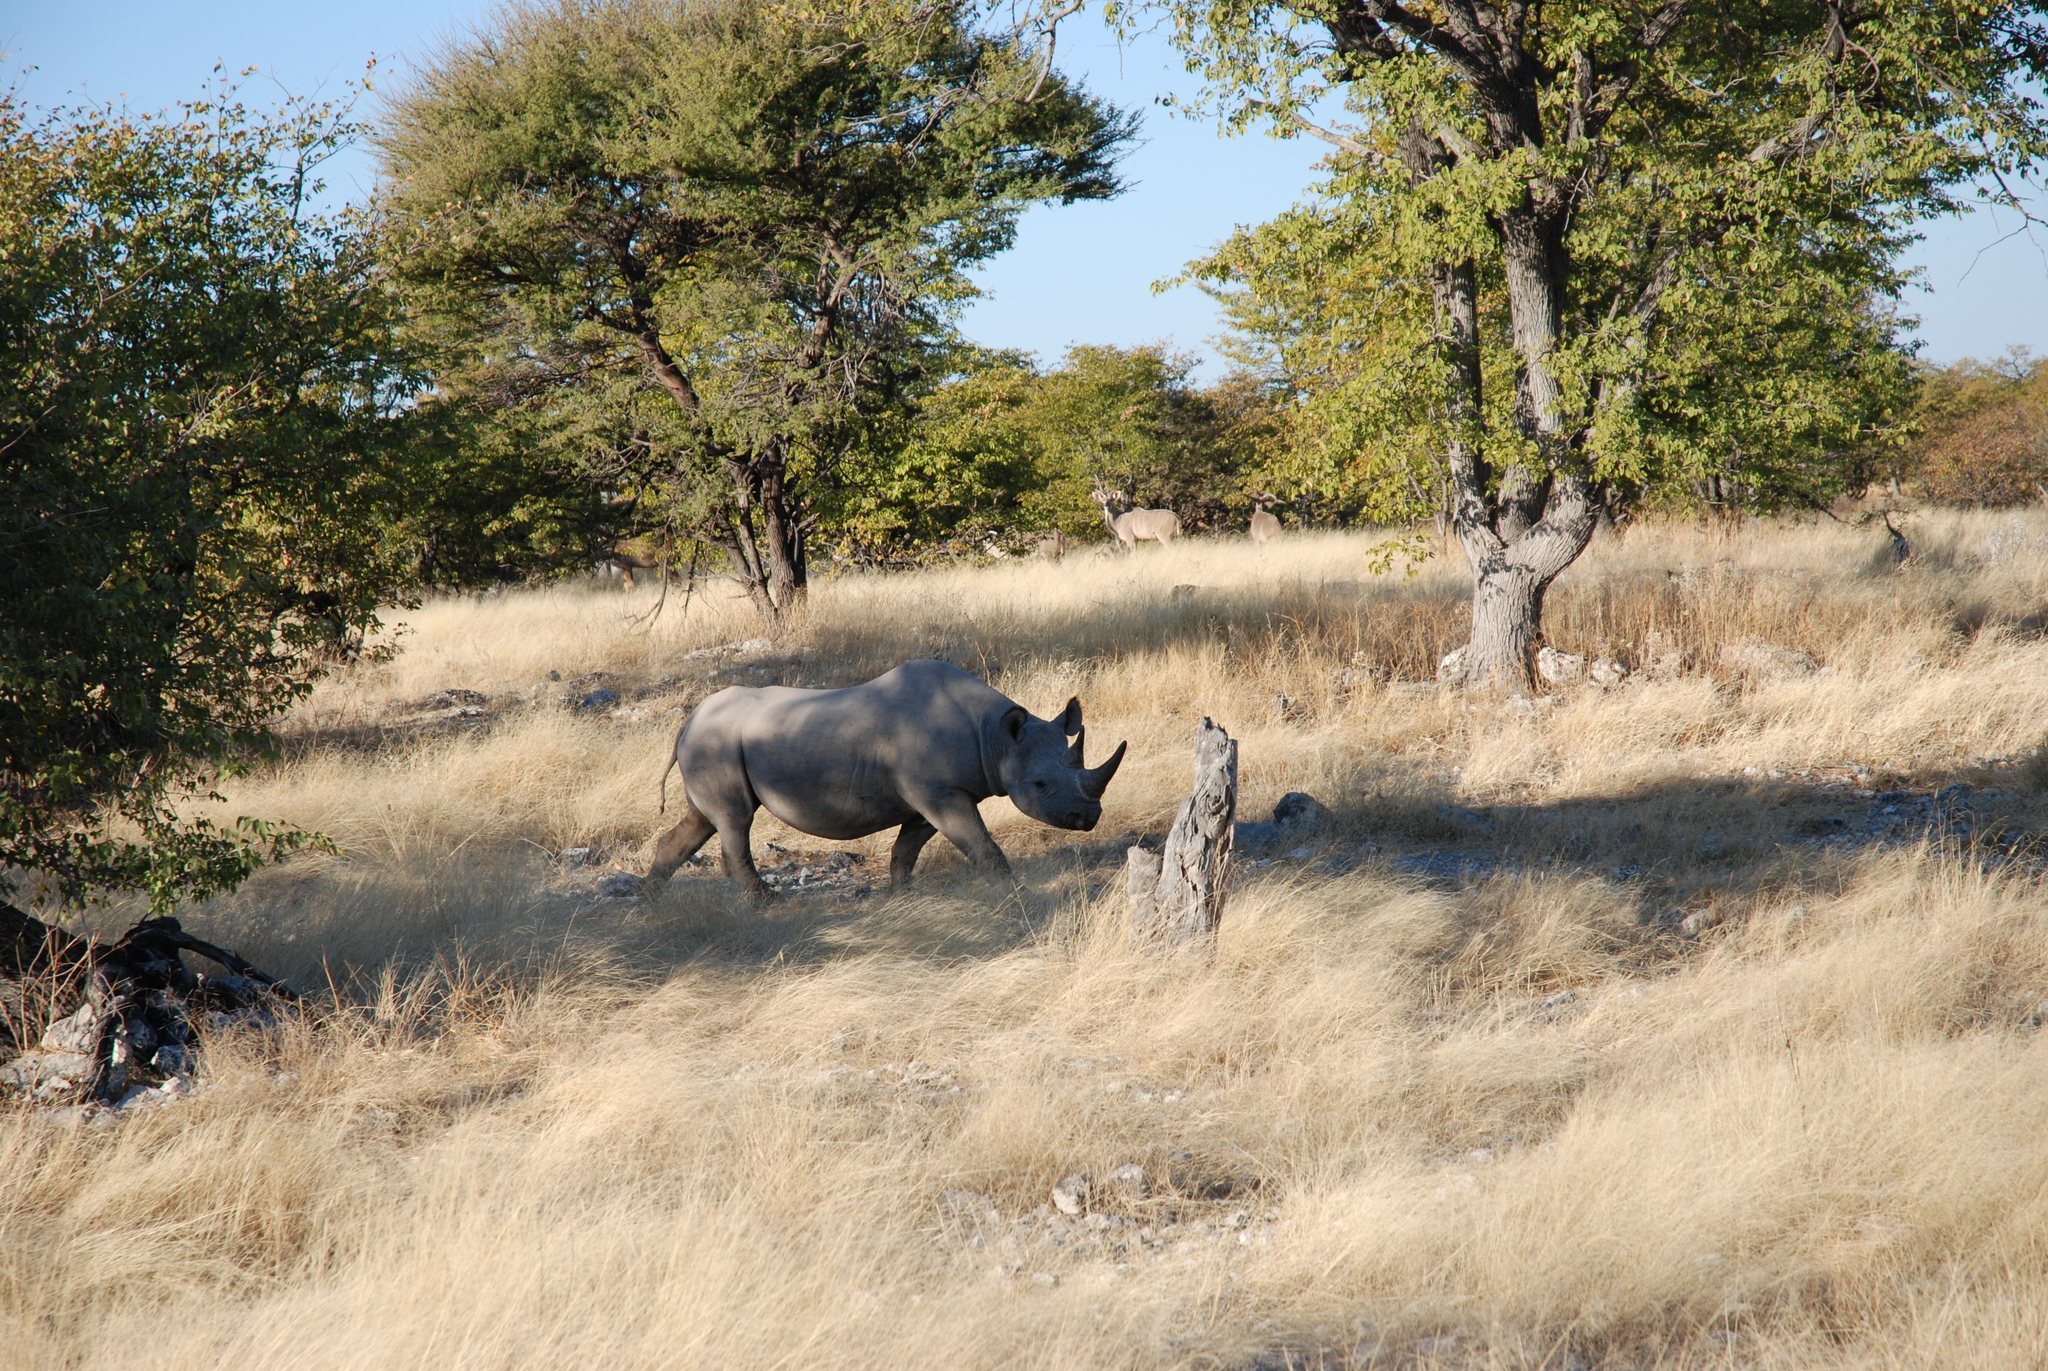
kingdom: Animalia
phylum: Chordata
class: Mammalia
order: Perissodactyla
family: Rhinocerotidae
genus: Diceros
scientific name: Diceros bicornis
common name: Black rhinoceros
